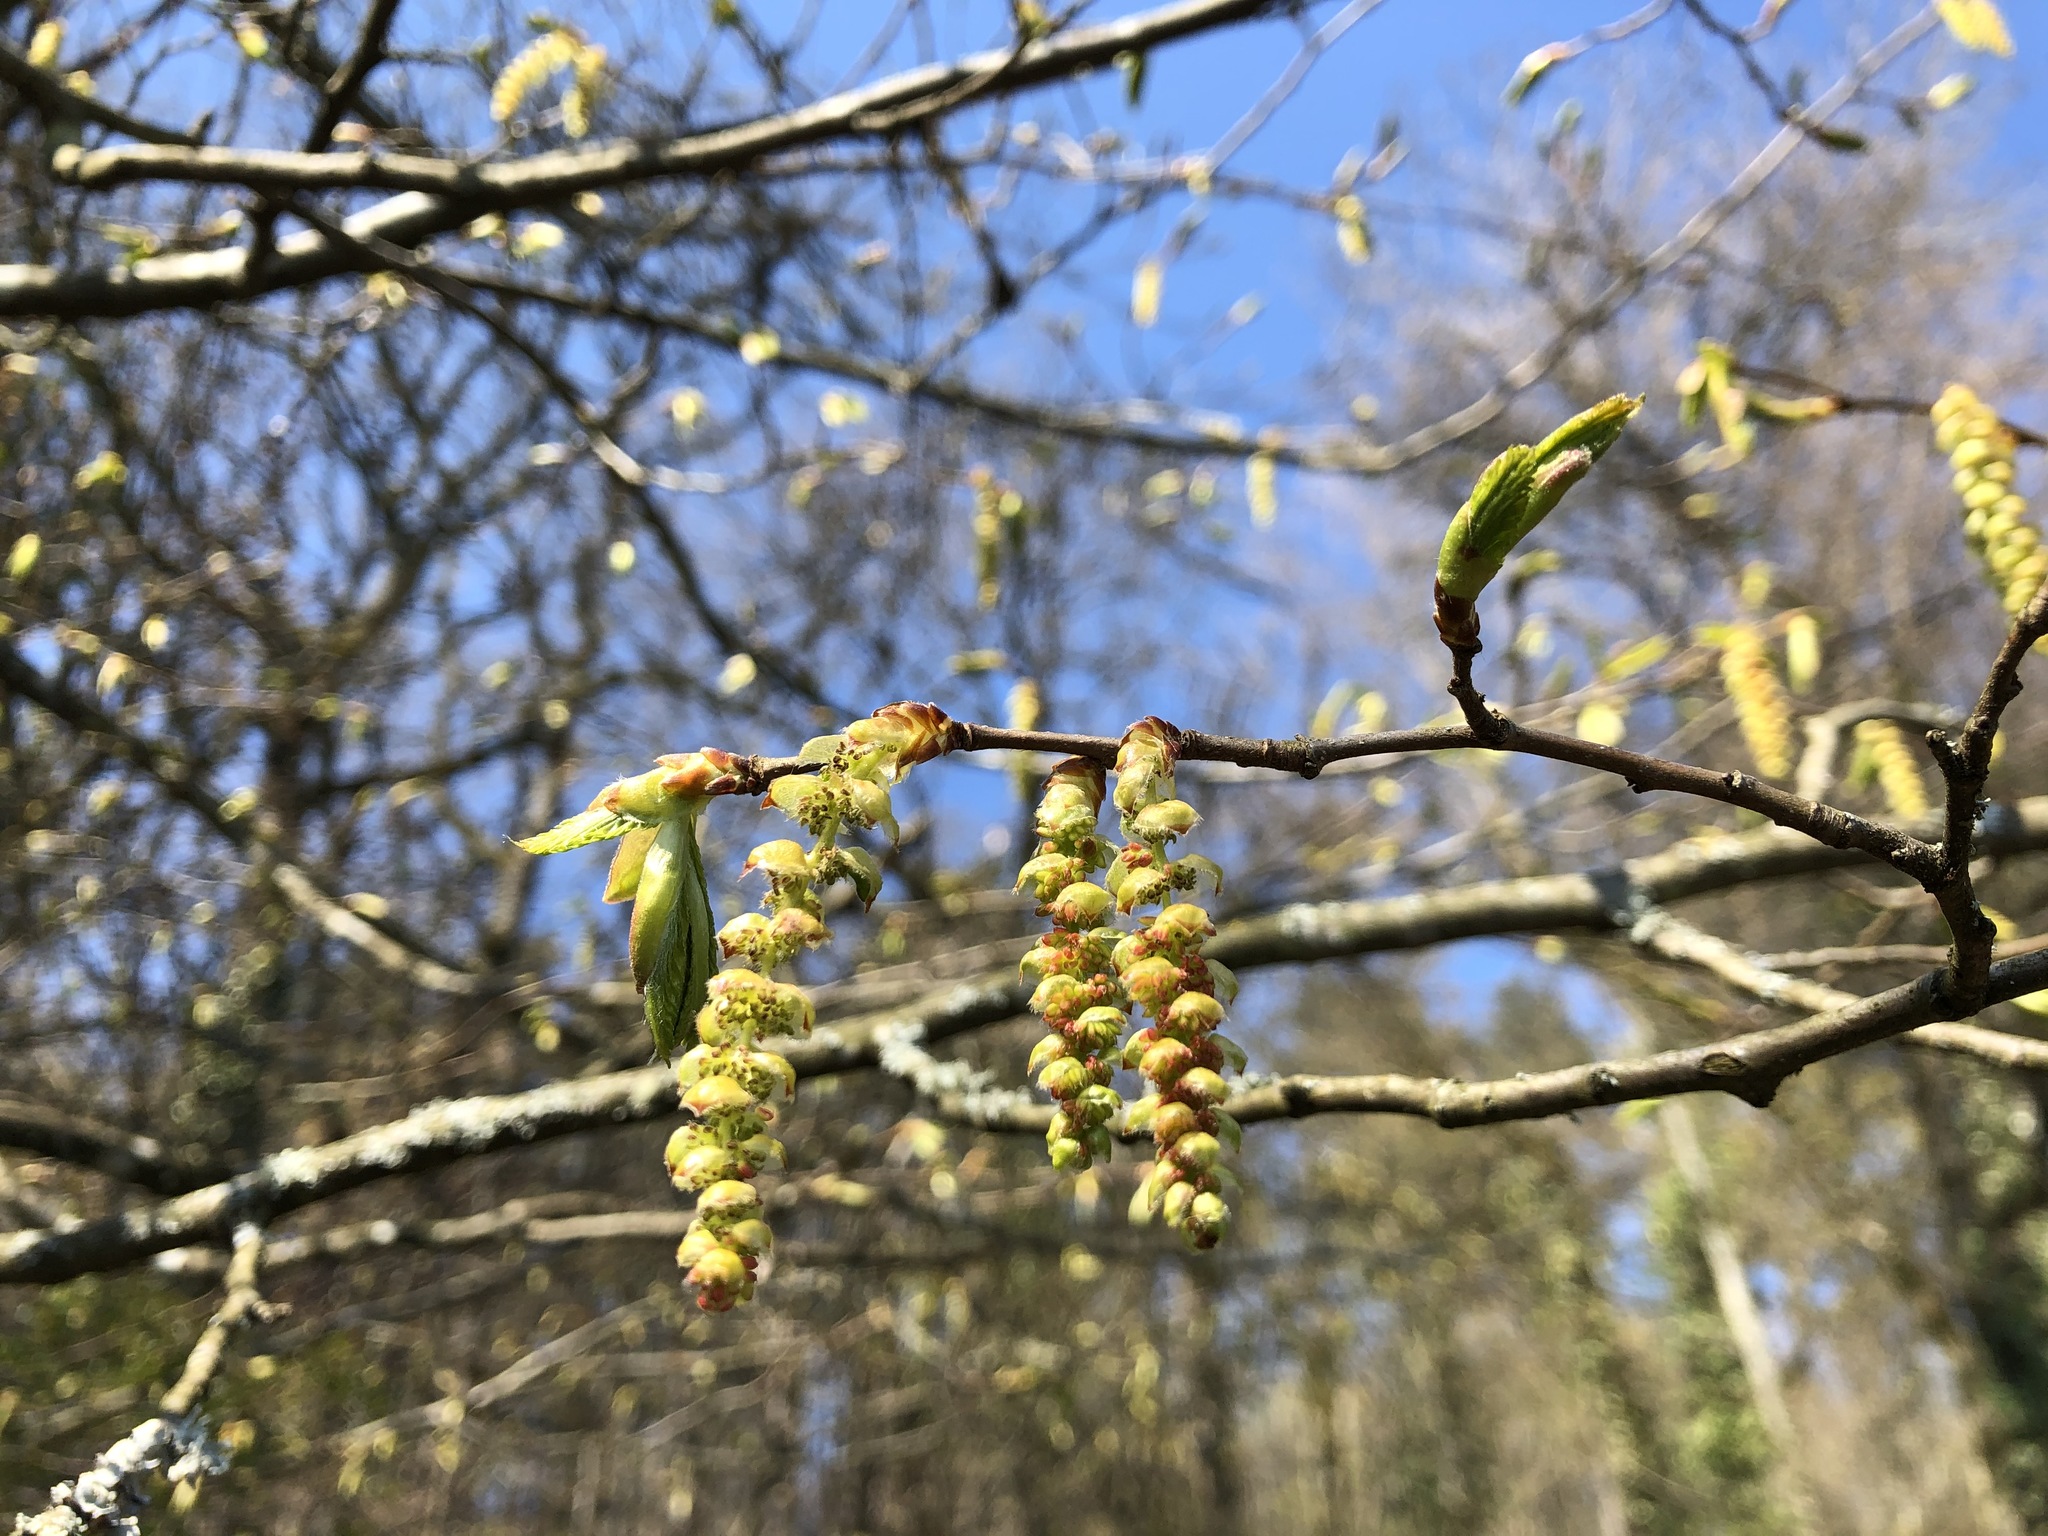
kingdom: Plantae
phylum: Tracheophyta
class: Magnoliopsida
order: Fagales
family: Betulaceae
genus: Carpinus
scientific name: Carpinus betulus
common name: Hornbeam
